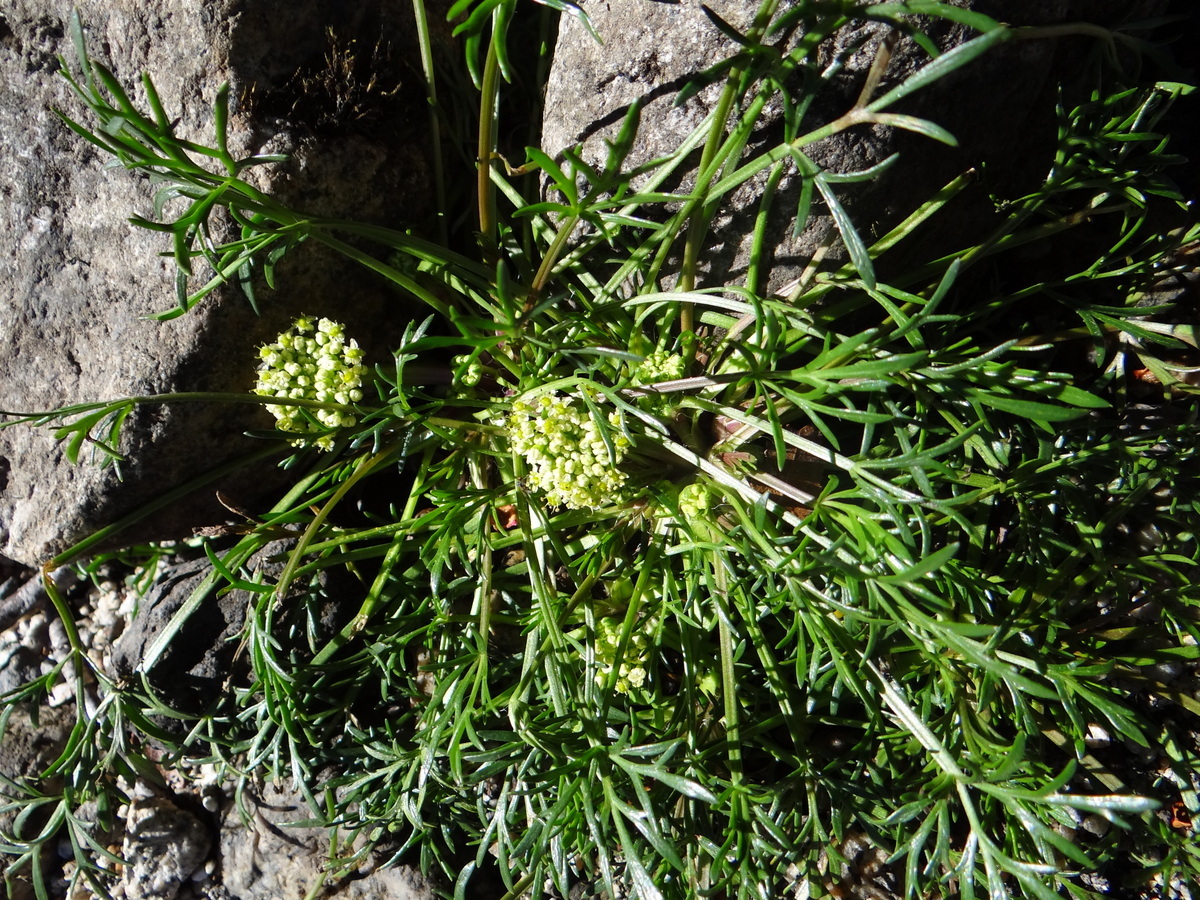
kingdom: Plantae
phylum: Tracheophyta
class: Magnoliopsida
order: Apiales
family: Apiaceae
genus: Azorella
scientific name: Azorella trifoliolata
